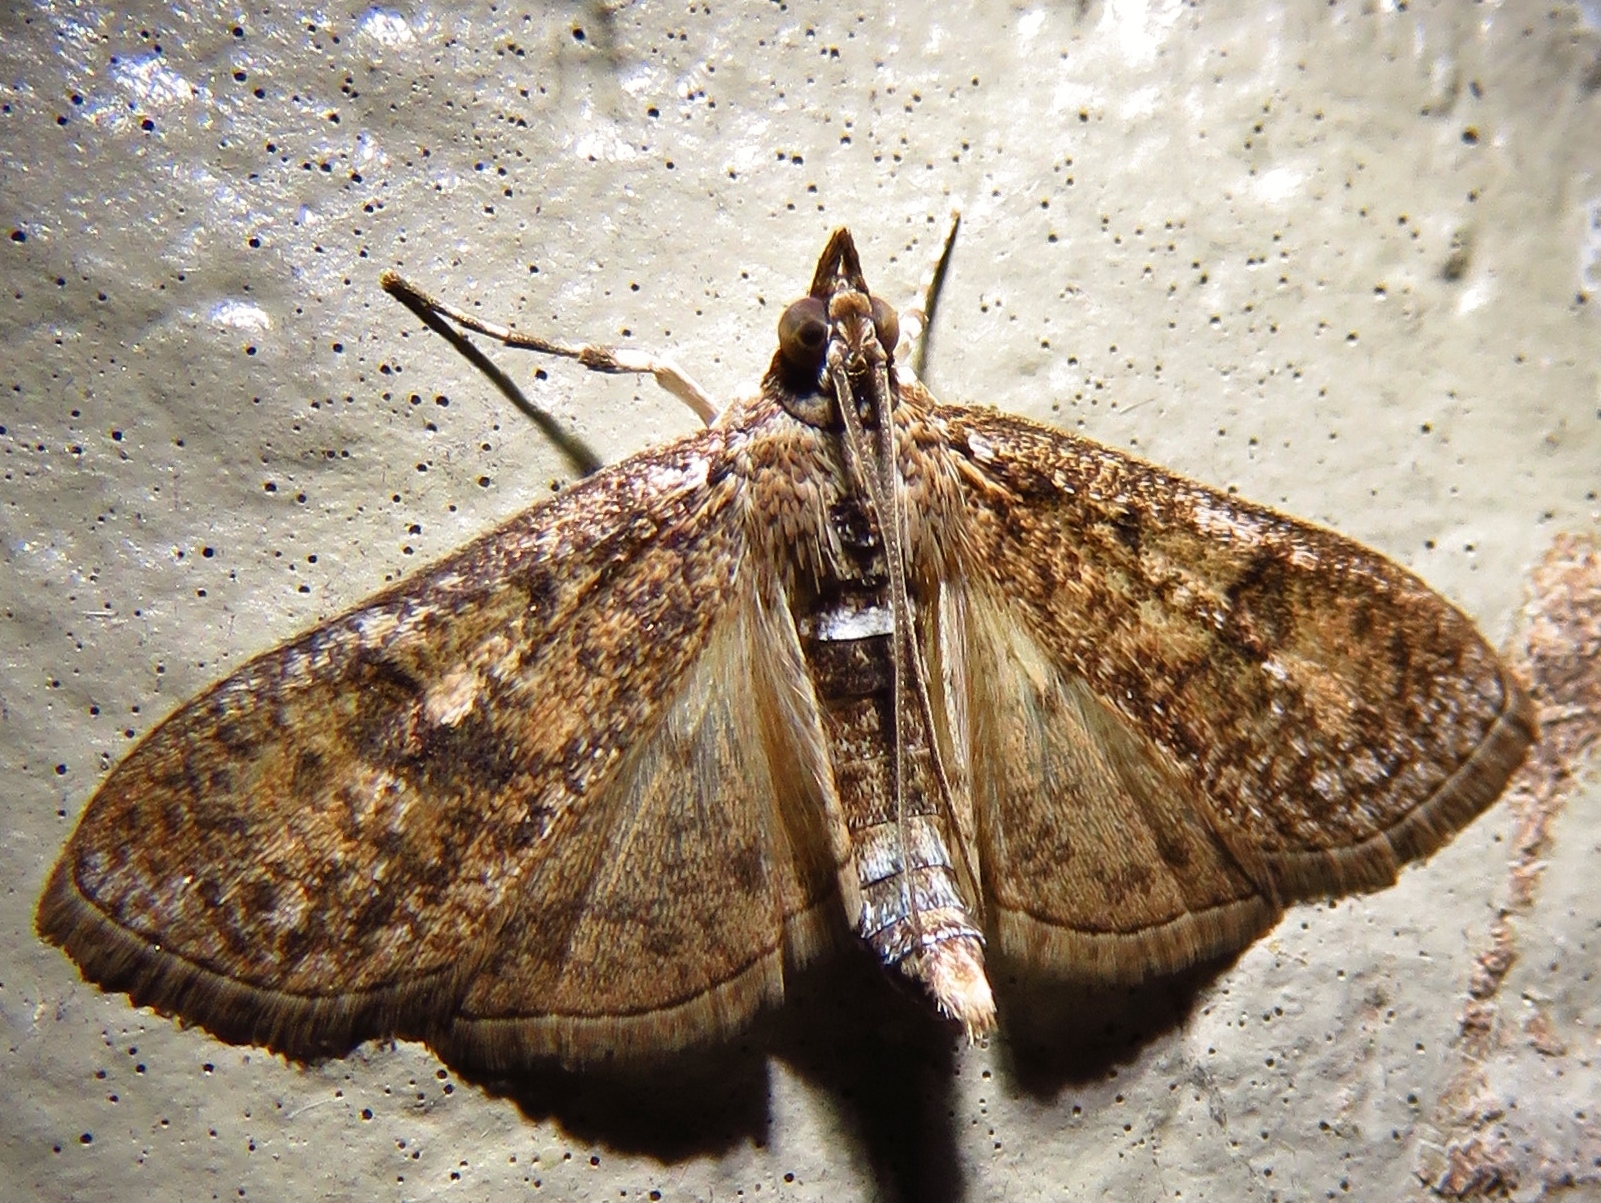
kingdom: Animalia
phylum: Arthropoda
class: Insecta
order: Lepidoptera
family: Crambidae
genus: Palpita
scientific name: Palpita magniferalis
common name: Splendid palpita moth
